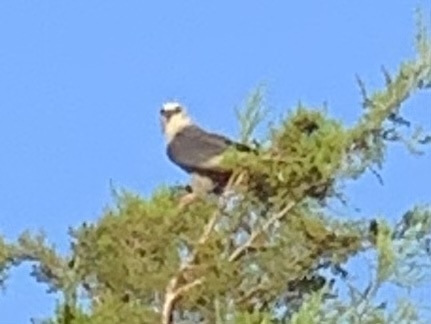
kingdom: Animalia
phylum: Chordata
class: Aves
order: Accipitriformes
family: Accipitridae
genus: Ictinia
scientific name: Ictinia mississippiensis
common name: Mississippi kite
